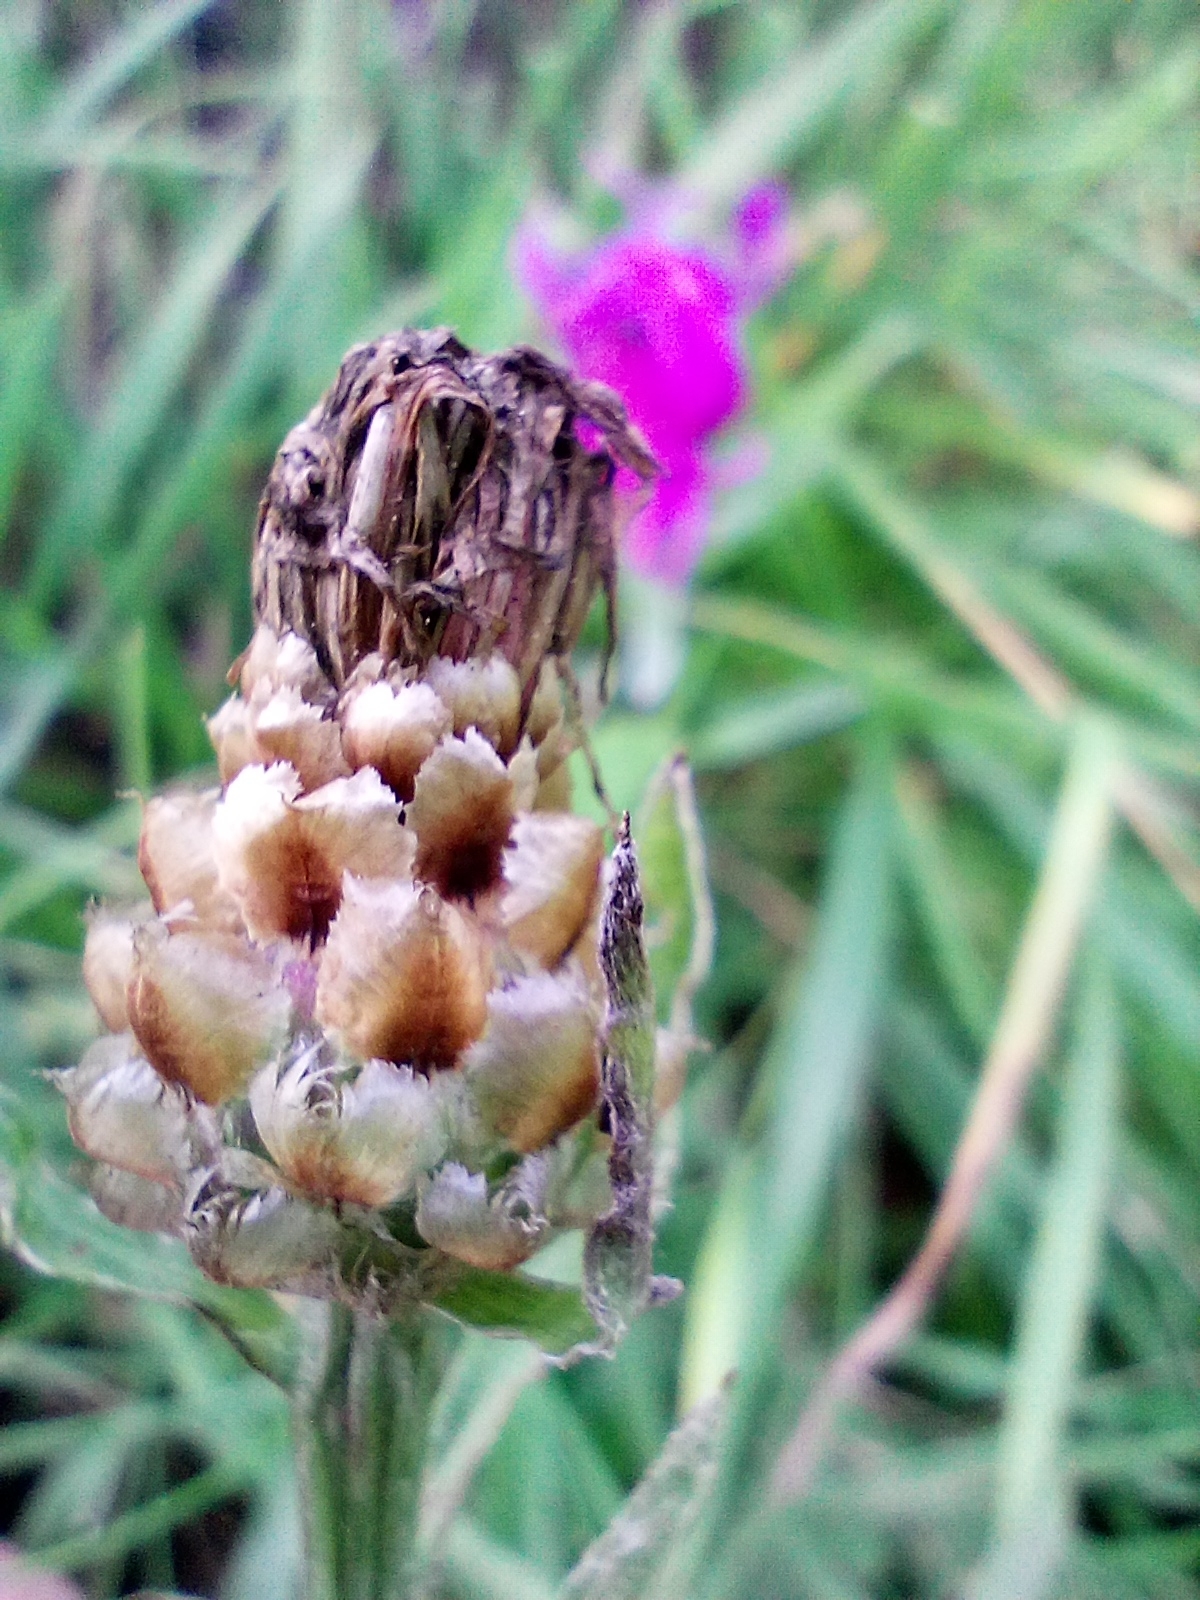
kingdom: Plantae
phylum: Tracheophyta
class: Magnoliopsida
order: Asterales
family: Asteraceae
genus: Centaurea
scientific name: Centaurea jacea
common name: Brown knapweed
